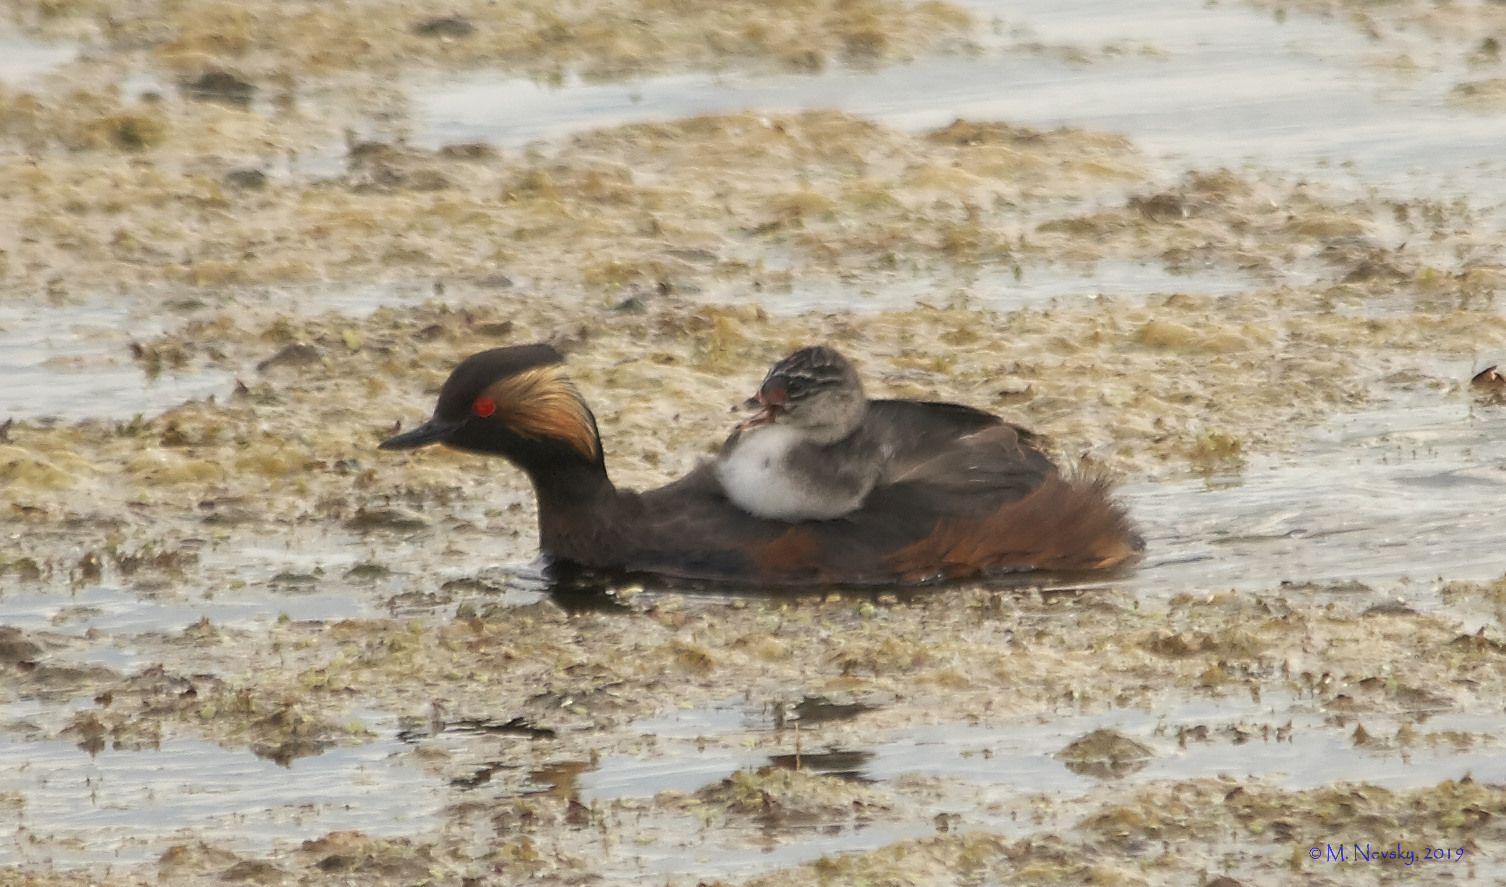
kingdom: Animalia
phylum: Chordata
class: Aves
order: Podicipediformes
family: Podicipedidae
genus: Podiceps
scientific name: Podiceps nigricollis
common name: Black-necked grebe
